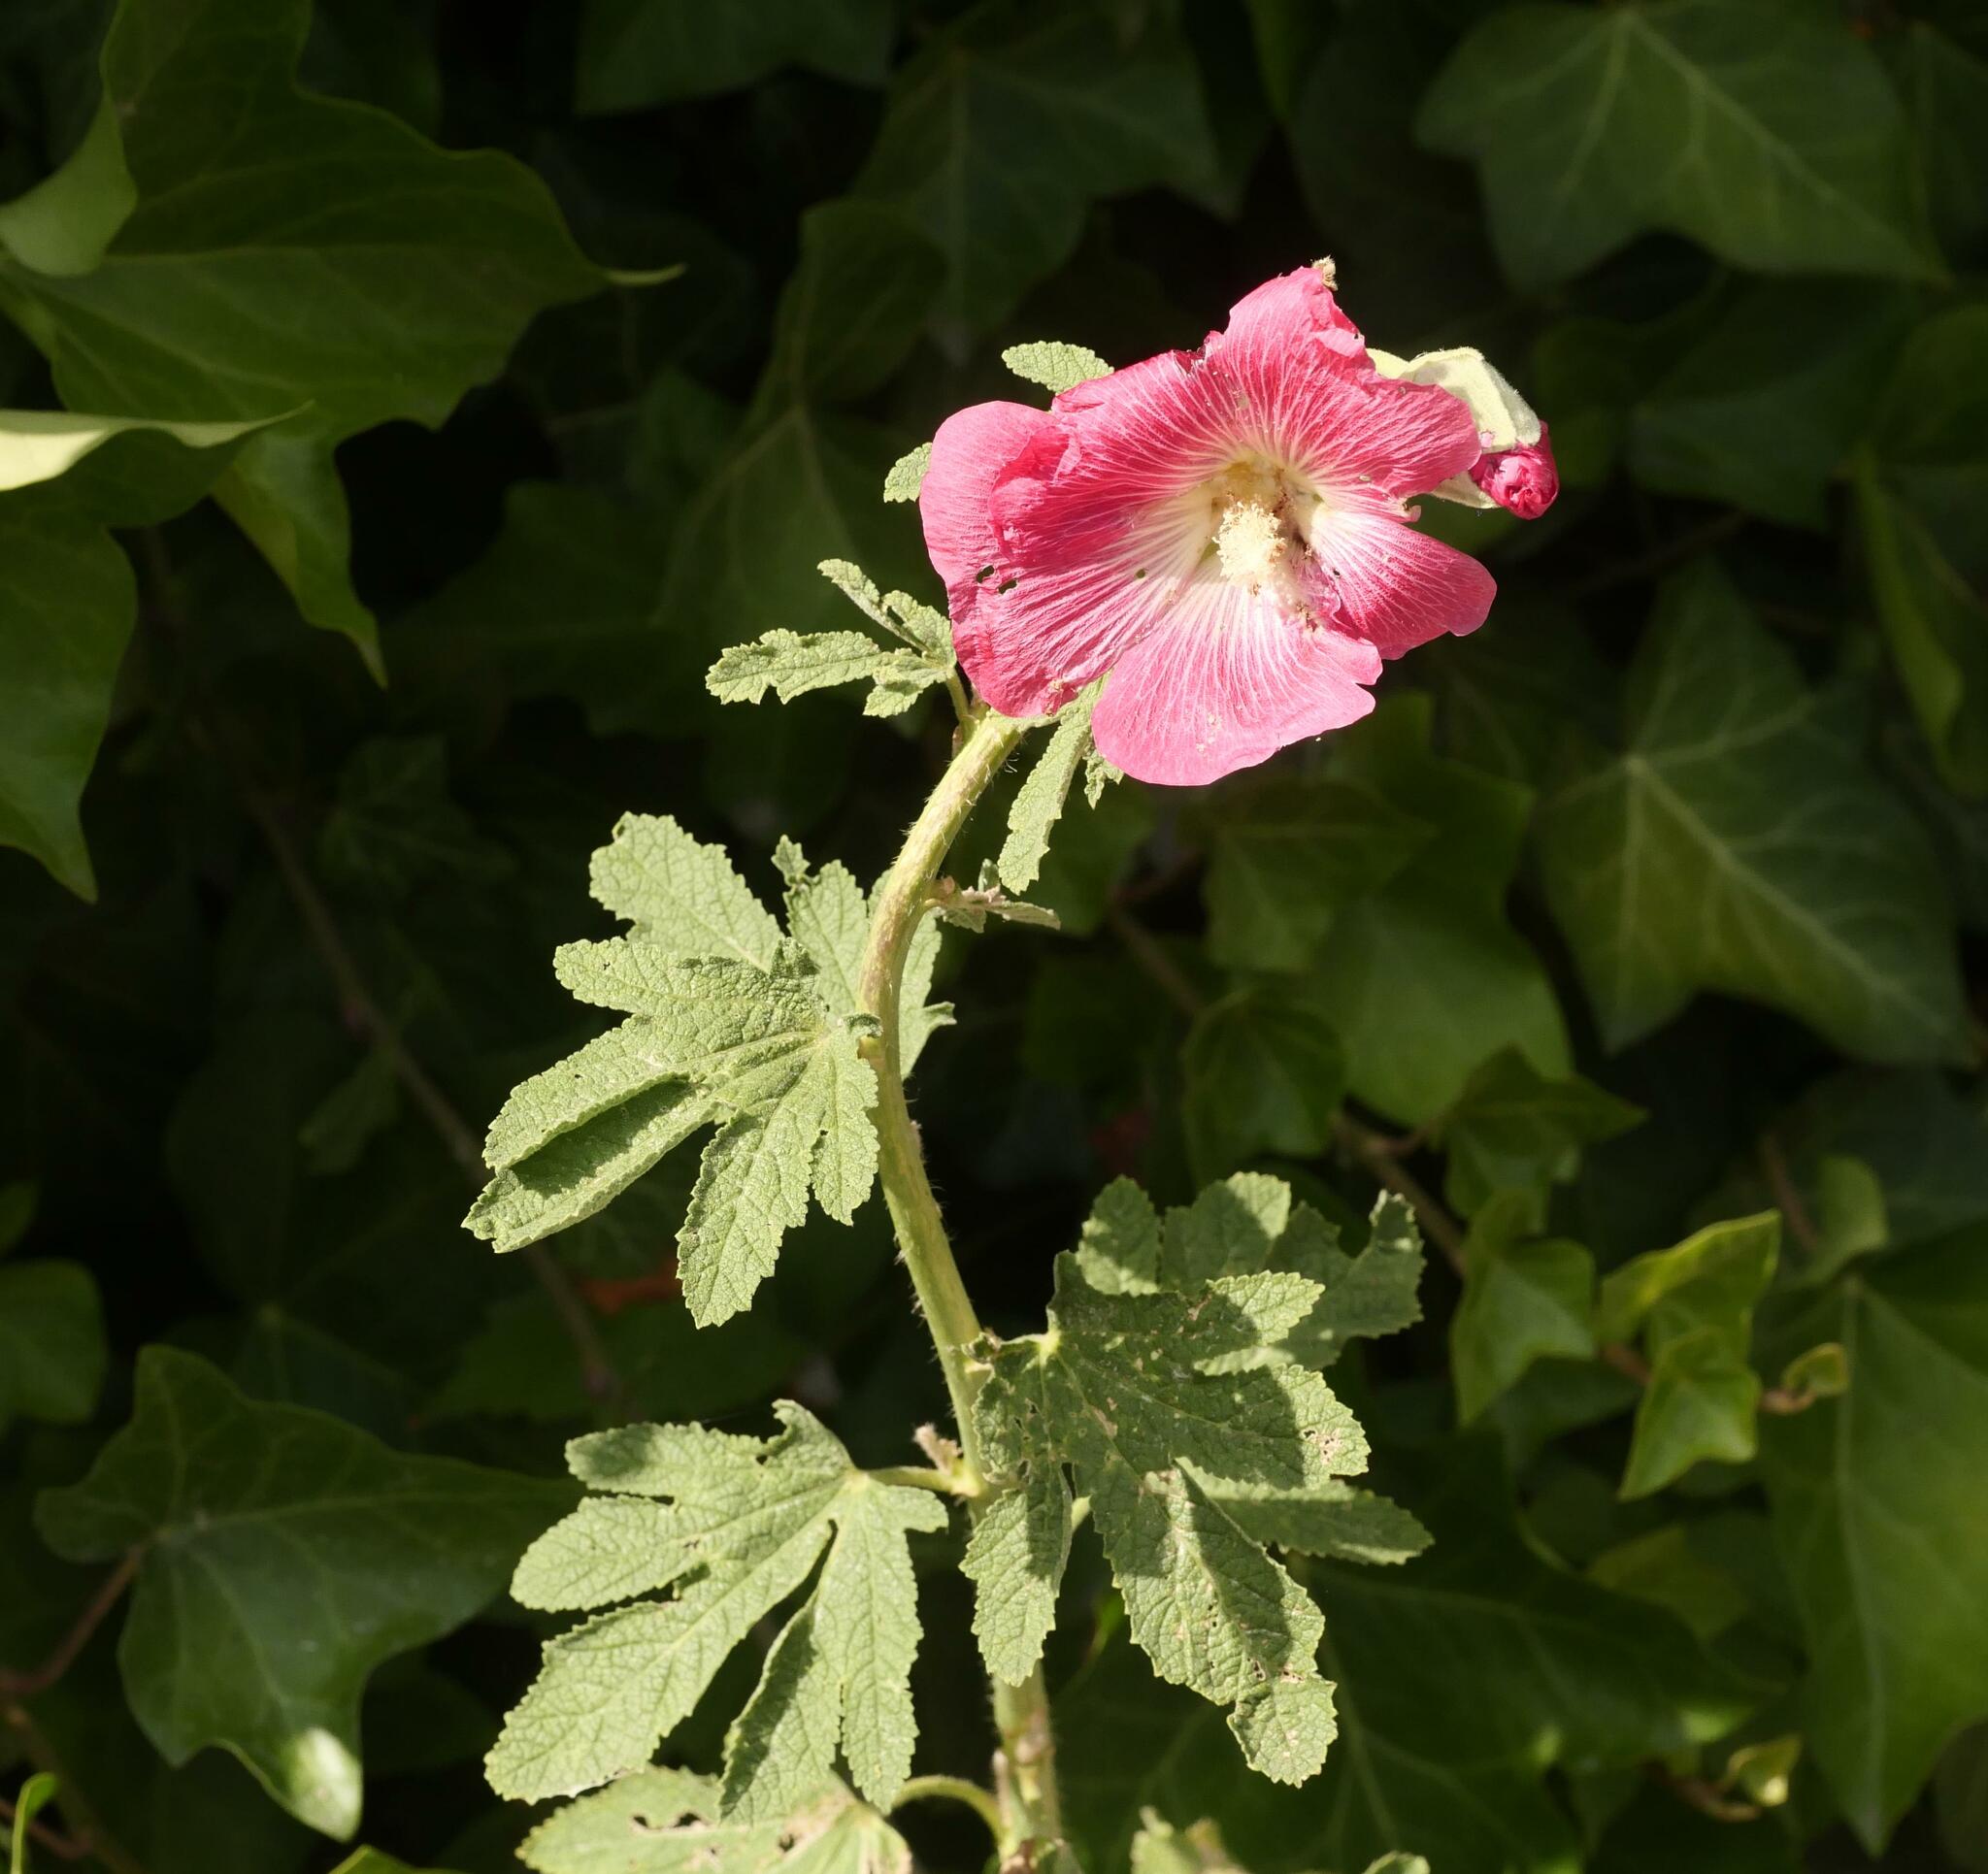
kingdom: Plantae
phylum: Tracheophyta
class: Magnoliopsida
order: Malvales
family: Malvaceae
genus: Alcea
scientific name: Alcea rosea
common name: Hollyhock
